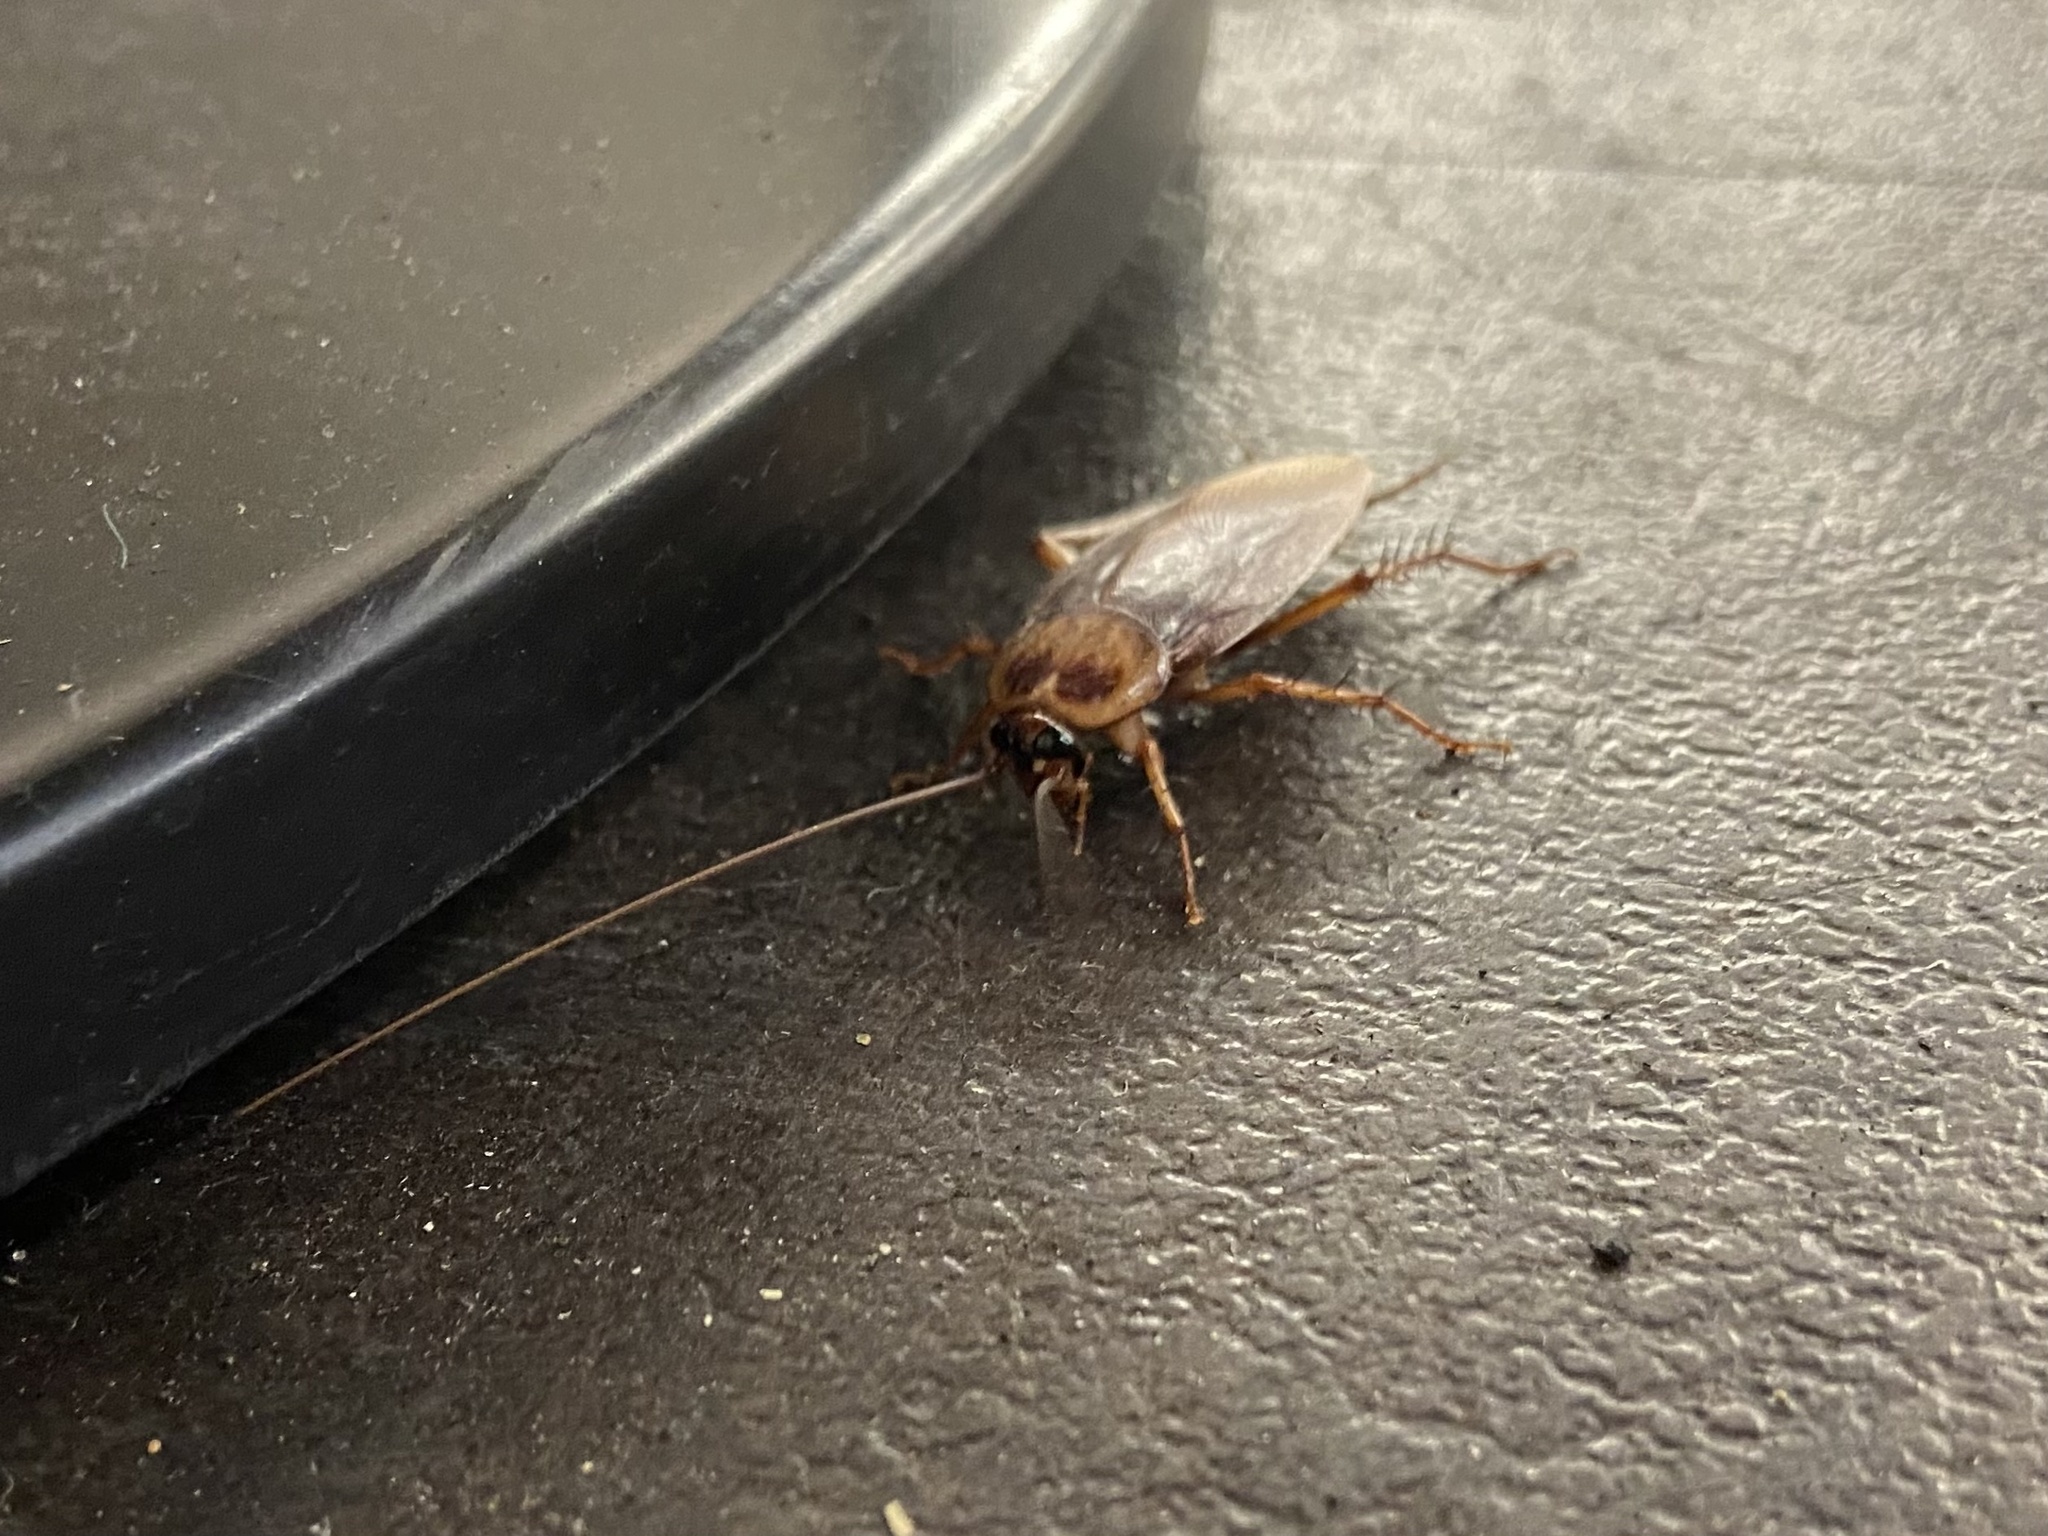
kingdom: Animalia
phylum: Arthropoda
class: Insecta
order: Blattodea
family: Blattidae
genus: Periplaneta
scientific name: Periplaneta americana
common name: American cockroach
